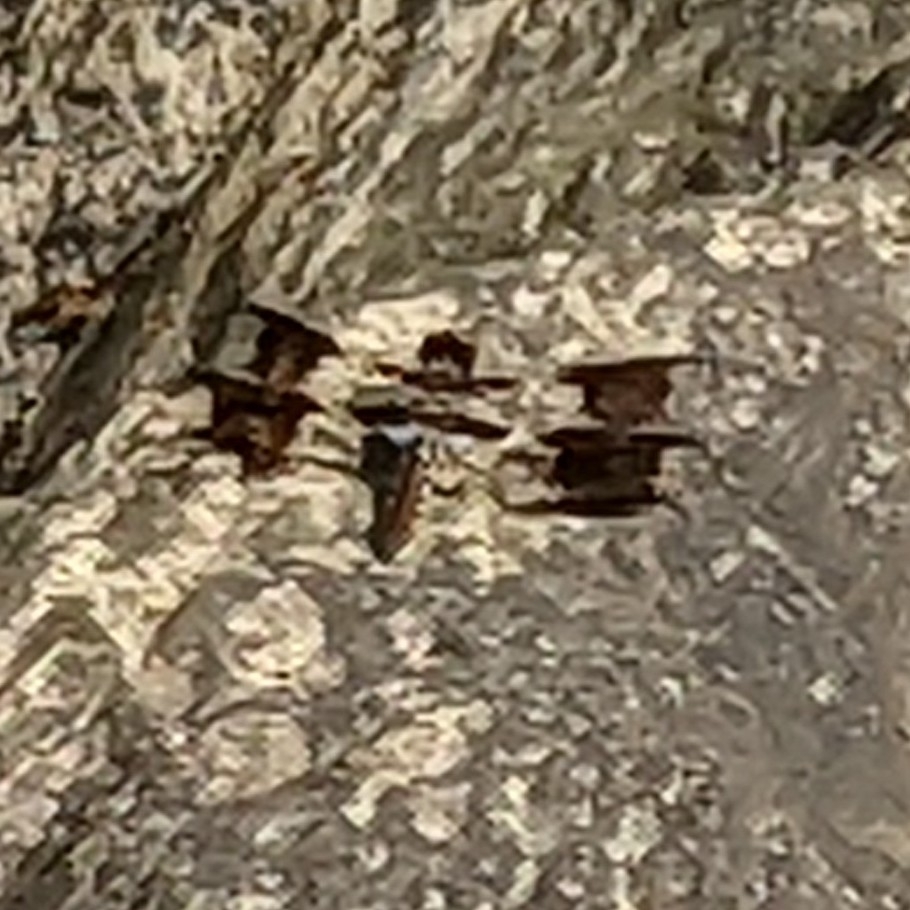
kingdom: Animalia
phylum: Arthropoda
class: Insecta
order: Odonata
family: Libellulidae
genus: Plathemis
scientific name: Plathemis lydia
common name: Common whitetail
